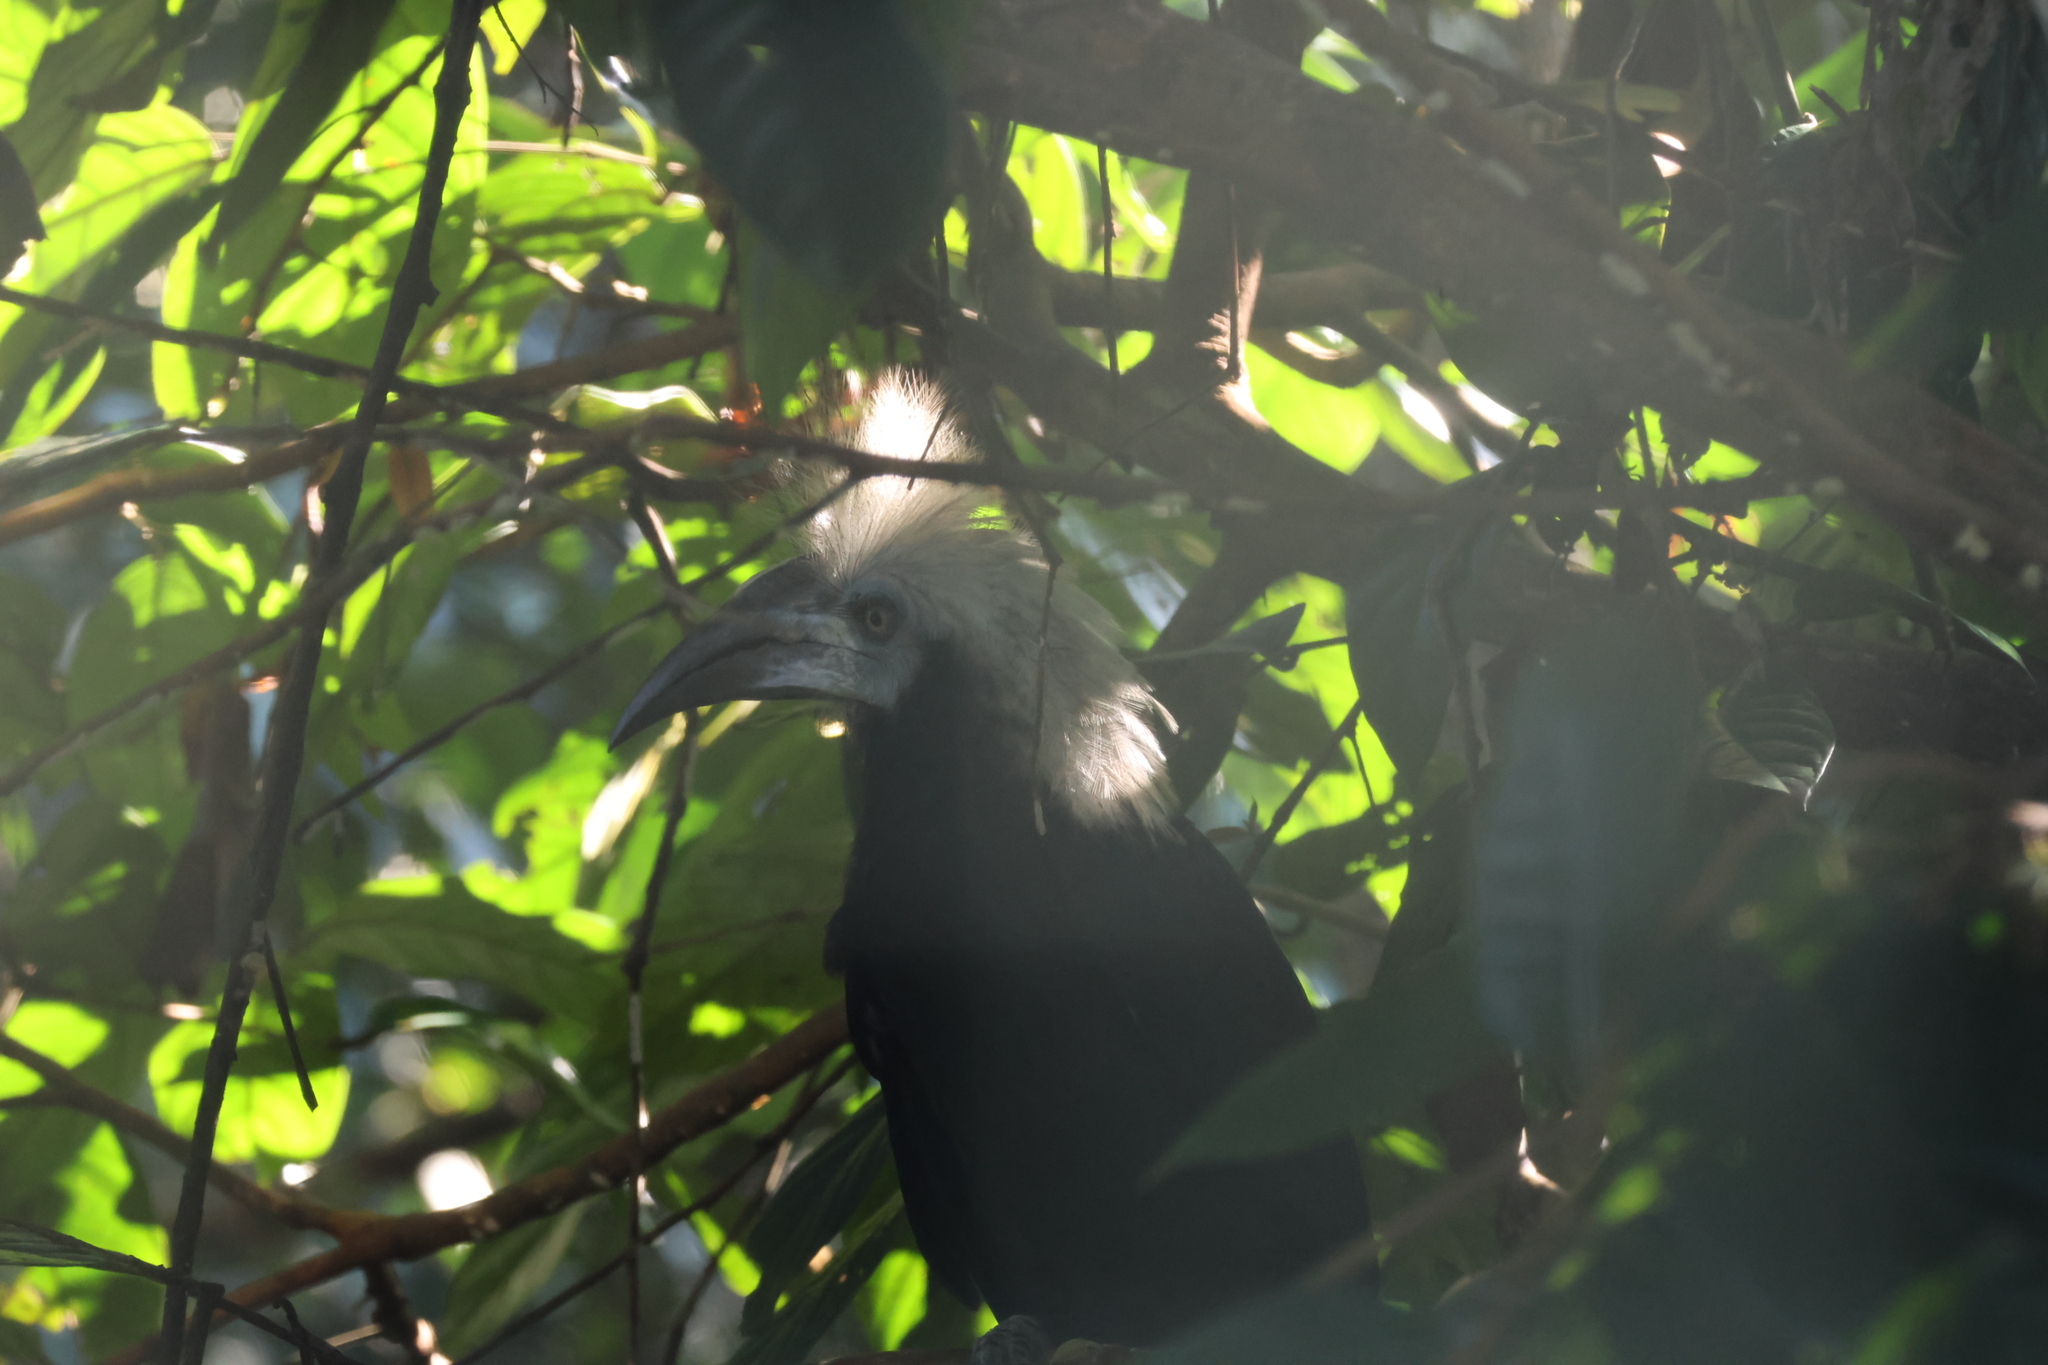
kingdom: Animalia
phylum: Chordata
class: Aves
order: Bucerotiformes
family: Bucerotidae
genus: Berenicornis
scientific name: Berenicornis comatus
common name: White-crowned hornbill
